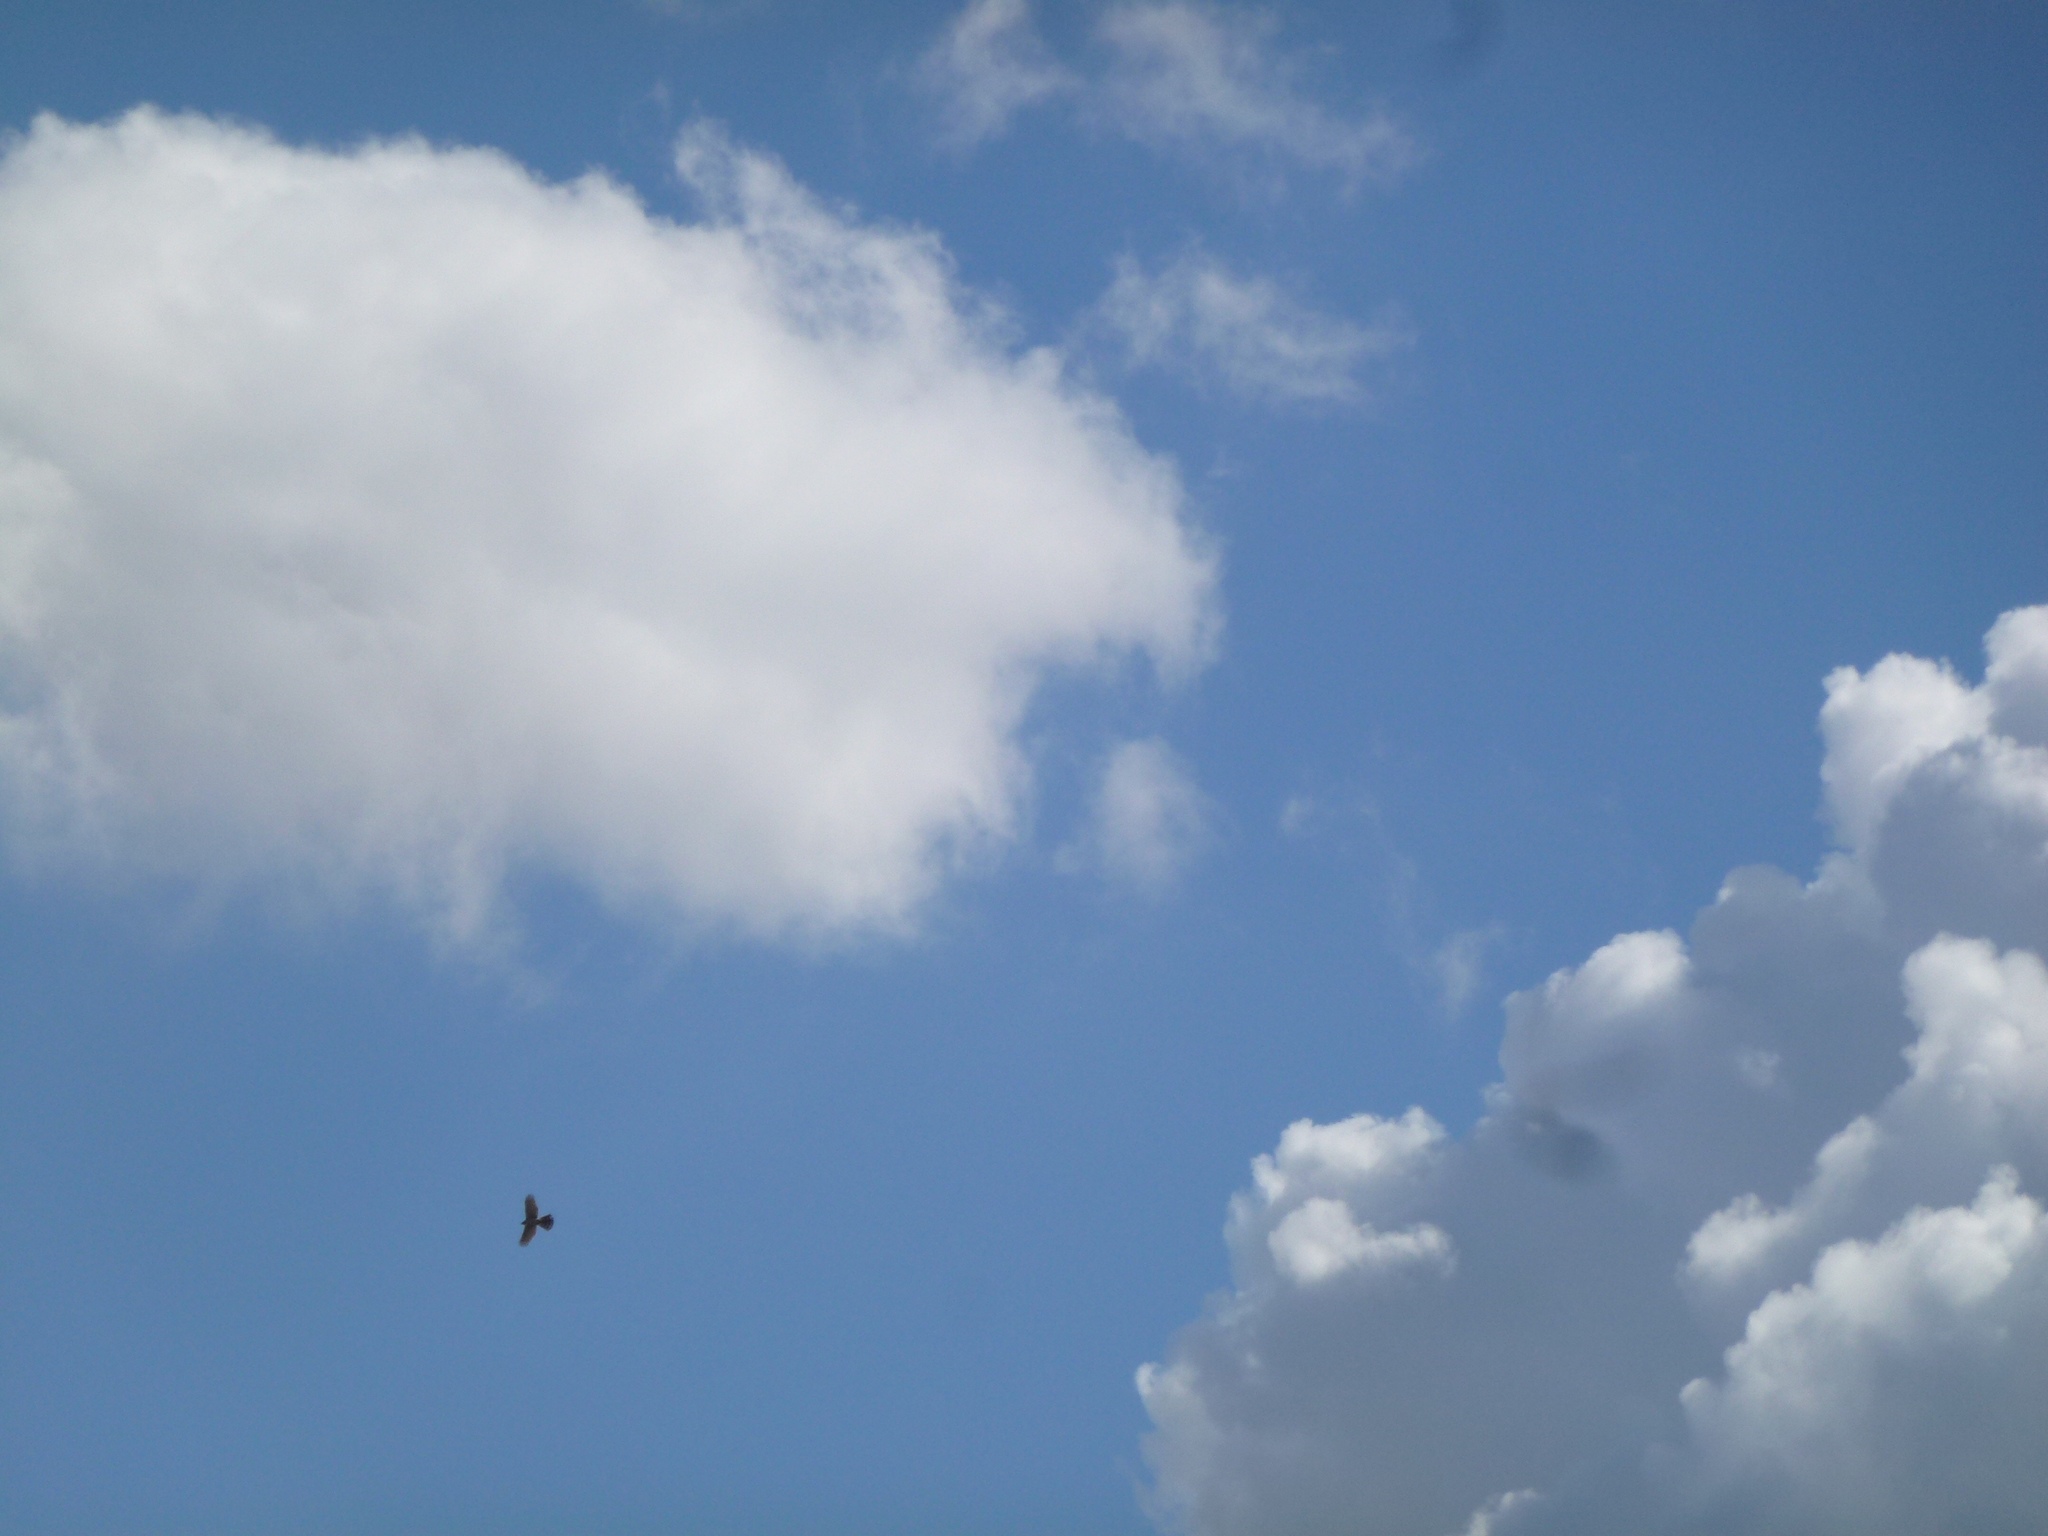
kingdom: Animalia
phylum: Chordata
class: Aves
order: Accipitriformes
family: Accipitridae
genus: Accipiter
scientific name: Accipiter cooperii
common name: Cooper's hawk
